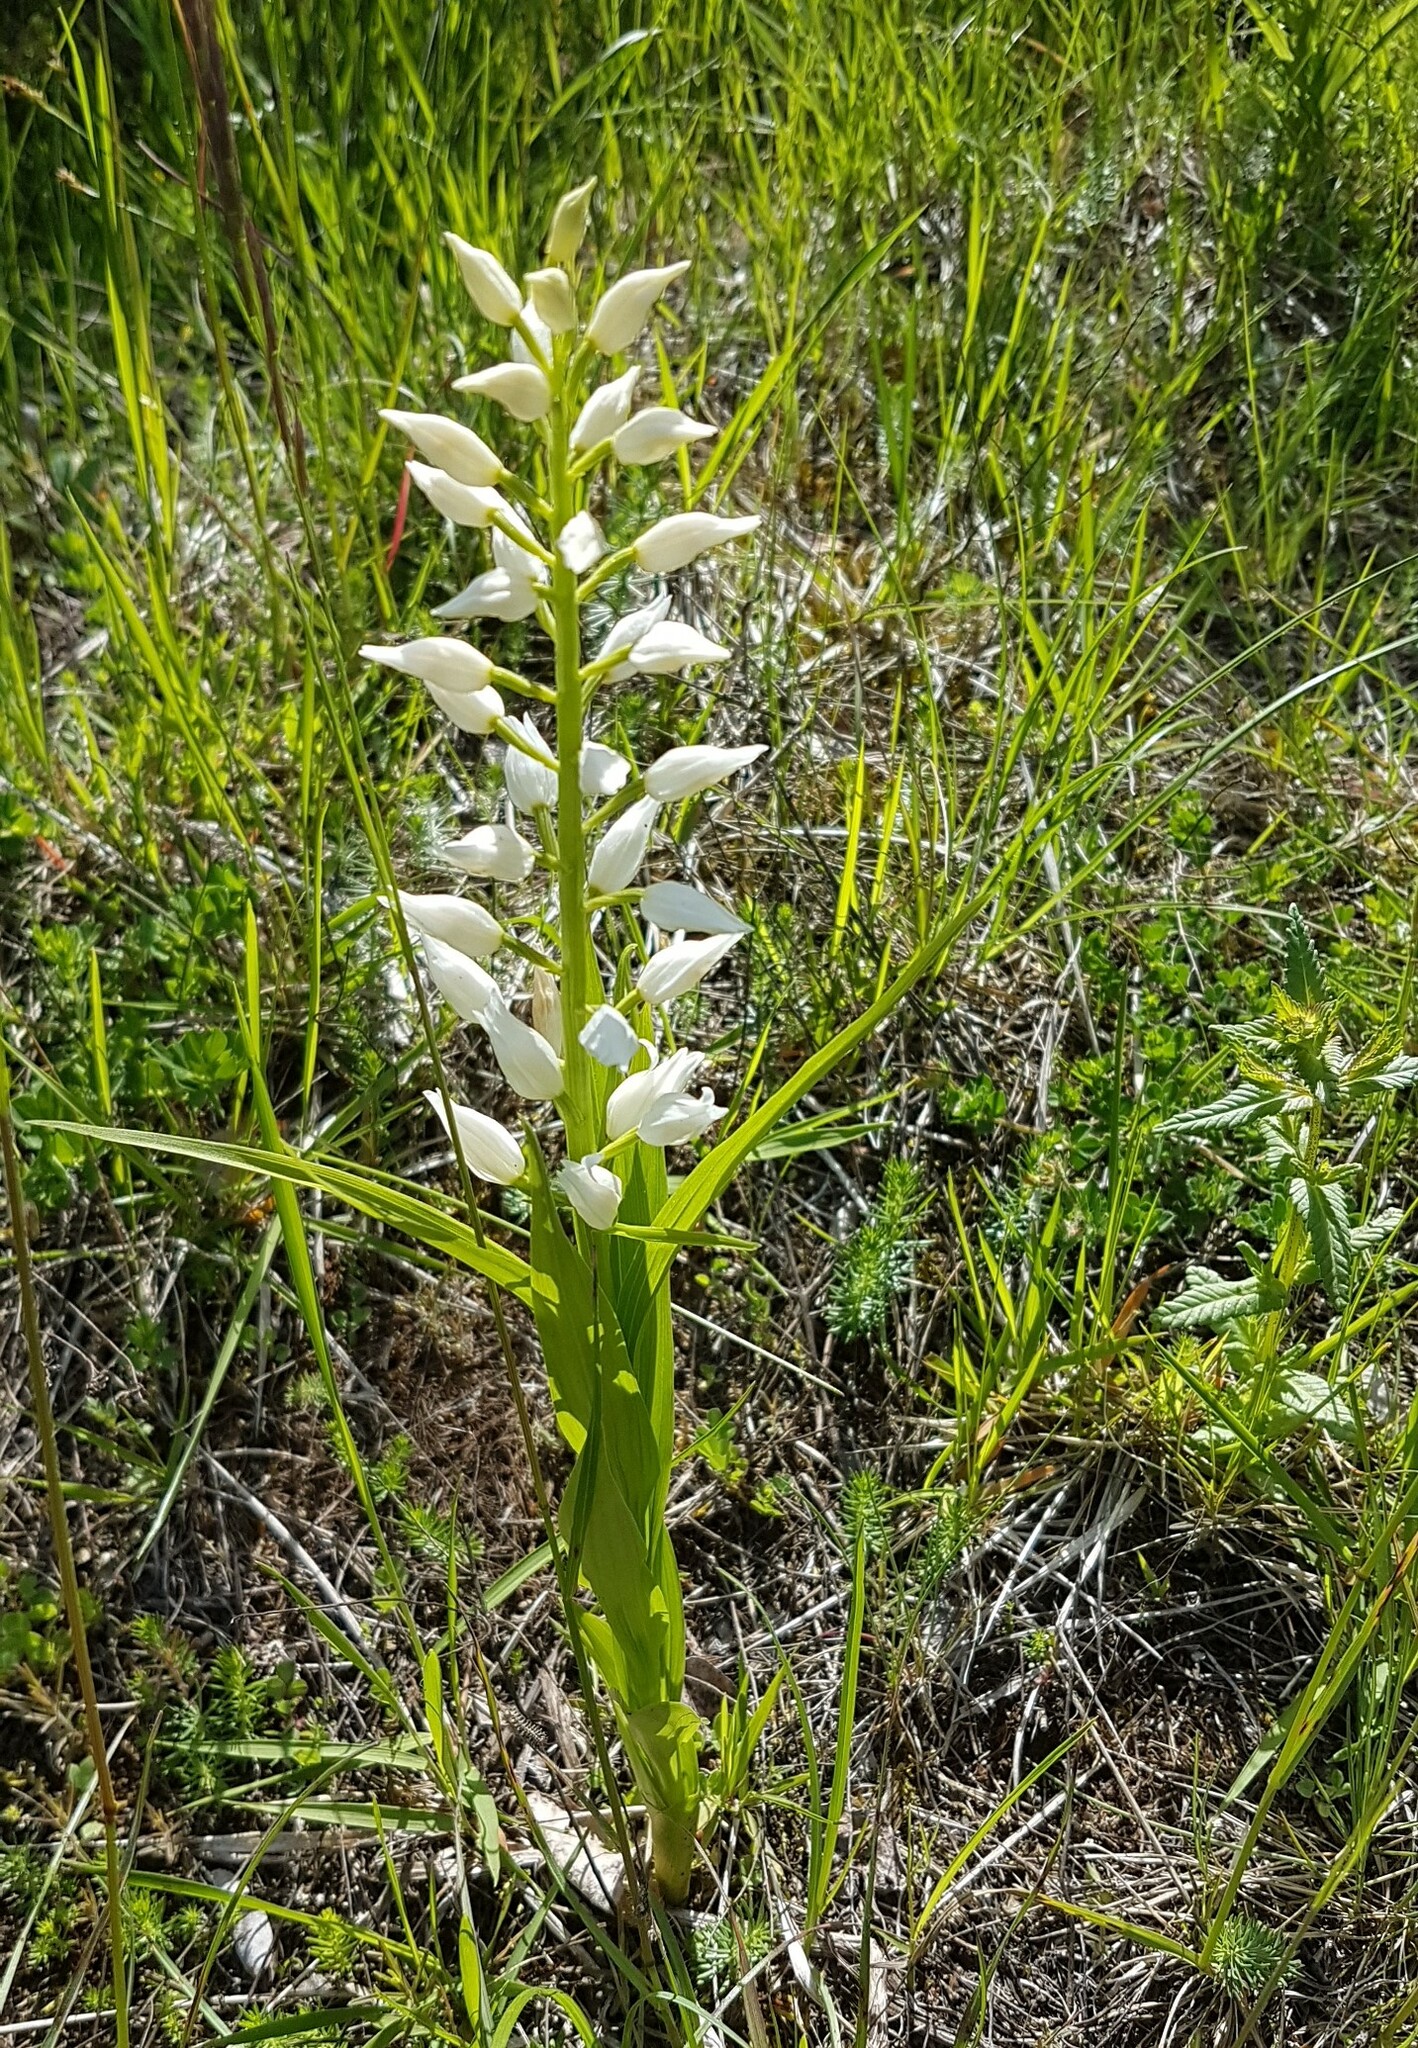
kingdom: Plantae
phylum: Tracheophyta
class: Liliopsida
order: Asparagales
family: Orchidaceae
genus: Cephalanthera
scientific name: Cephalanthera longifolia
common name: Narrow-leaved helleborine
